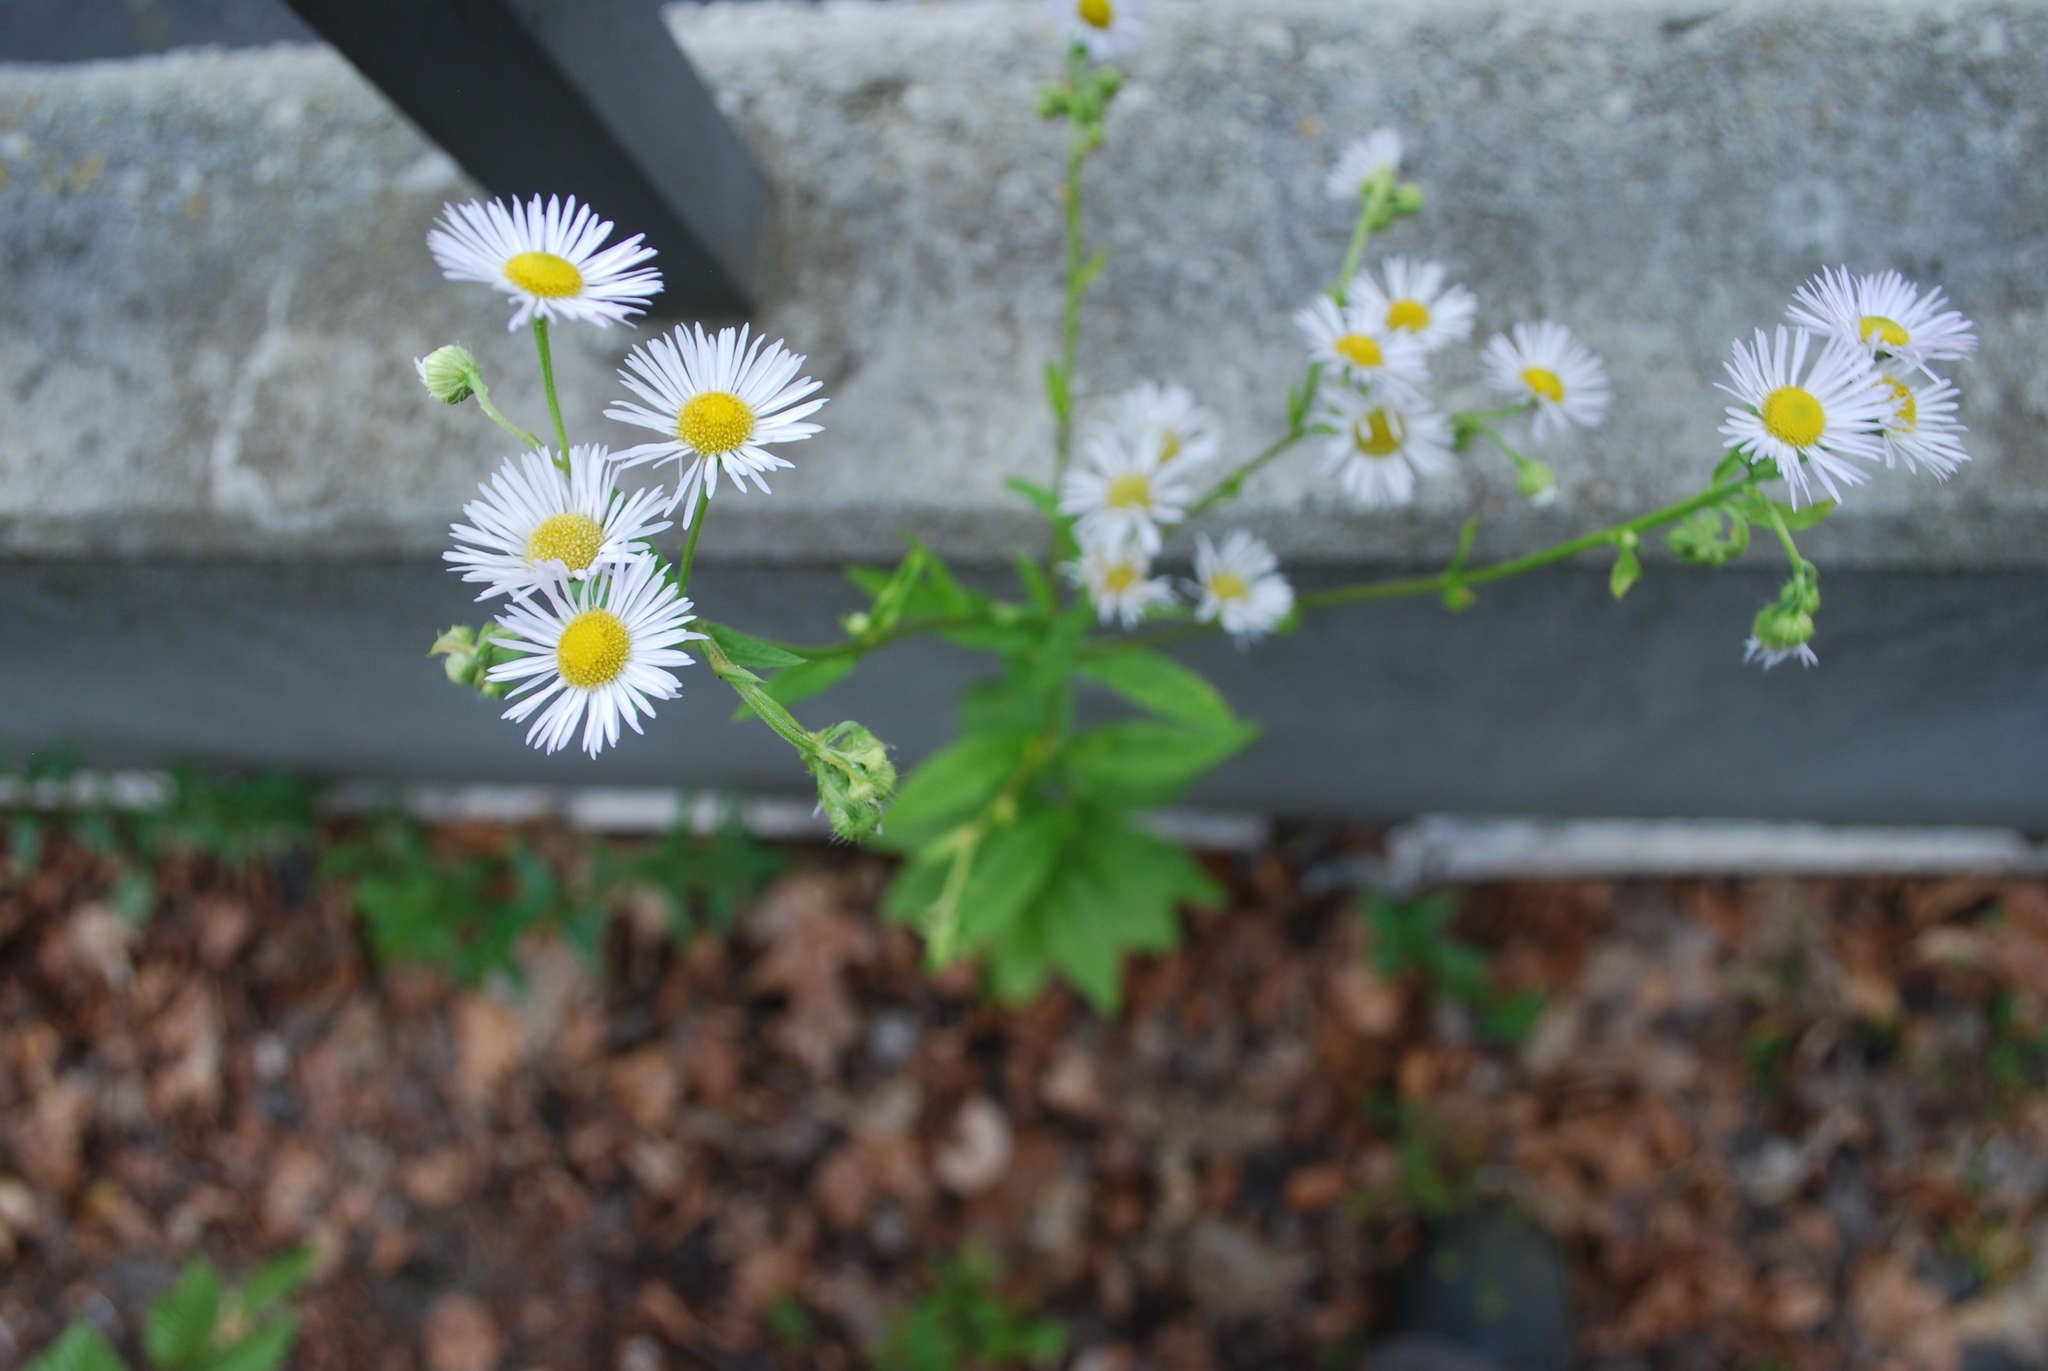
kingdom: Plantae
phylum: Tracheophyta
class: Magnoliopsida
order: Asterales
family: Asteraceae
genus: Erigeron
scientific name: Erigeron annuus
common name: Tall fleabane
